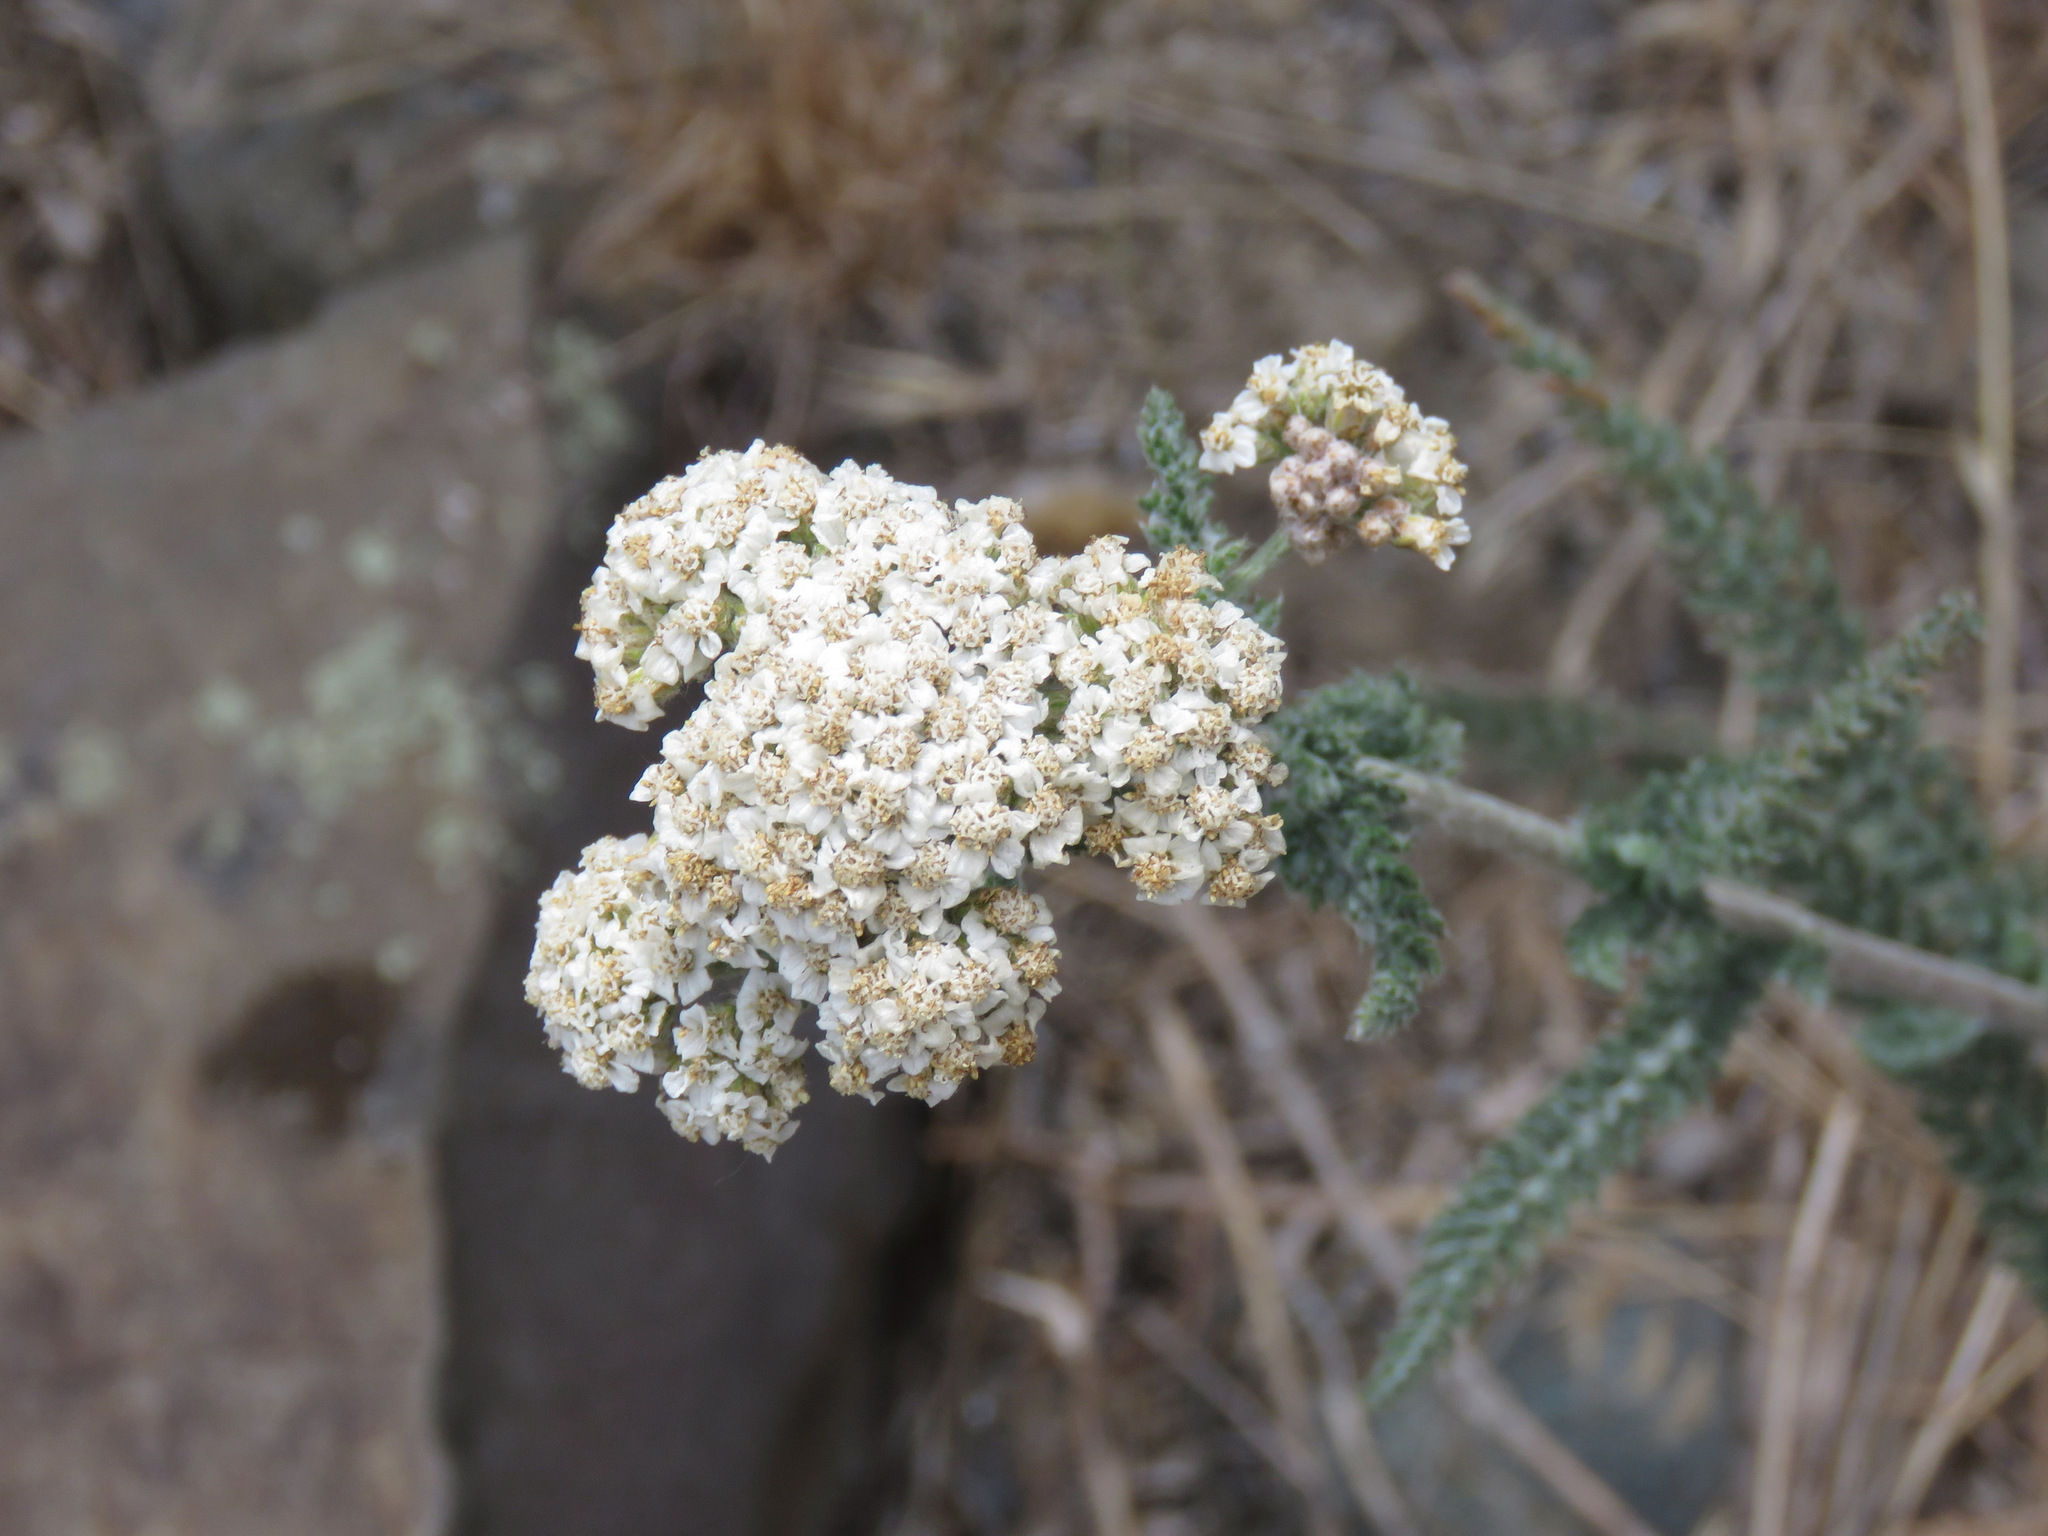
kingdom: Plantae
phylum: Tracheophyta
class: Magnoliopsida
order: Asterales
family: Asteraceae
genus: Achillea
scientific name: Achillea millefolium
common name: Yarrow
